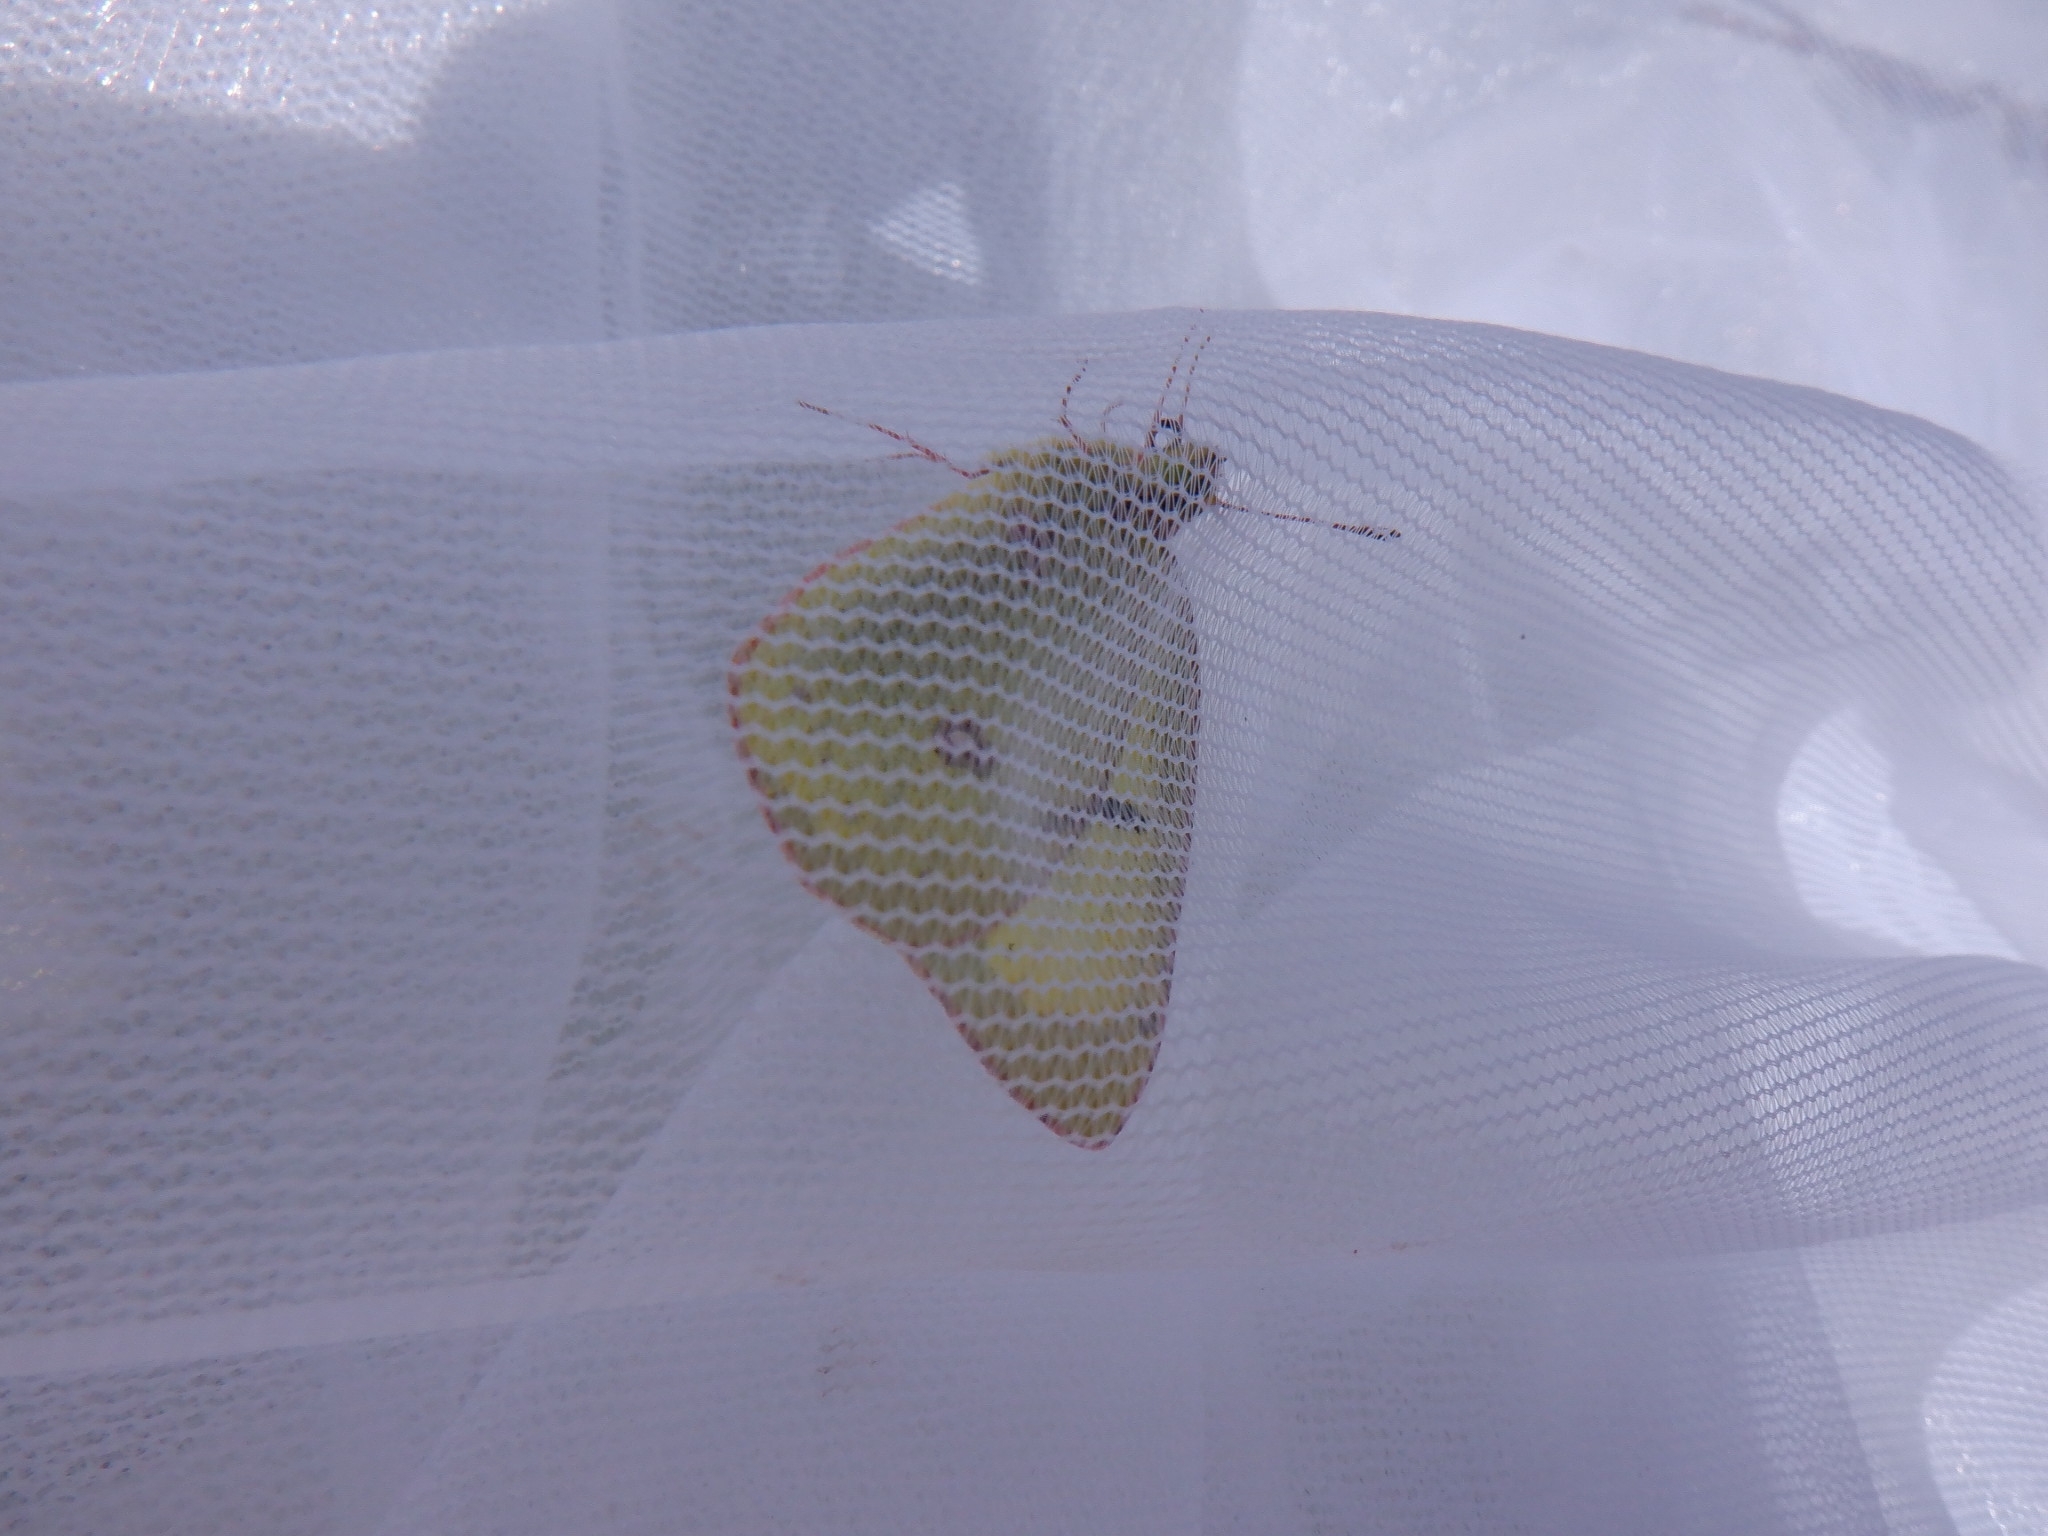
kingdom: Animalia
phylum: Arthropoda
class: Insecta
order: Lepidoptera
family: Pieridae
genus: Colias
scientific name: Colias philodice
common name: Clouded sulphur
